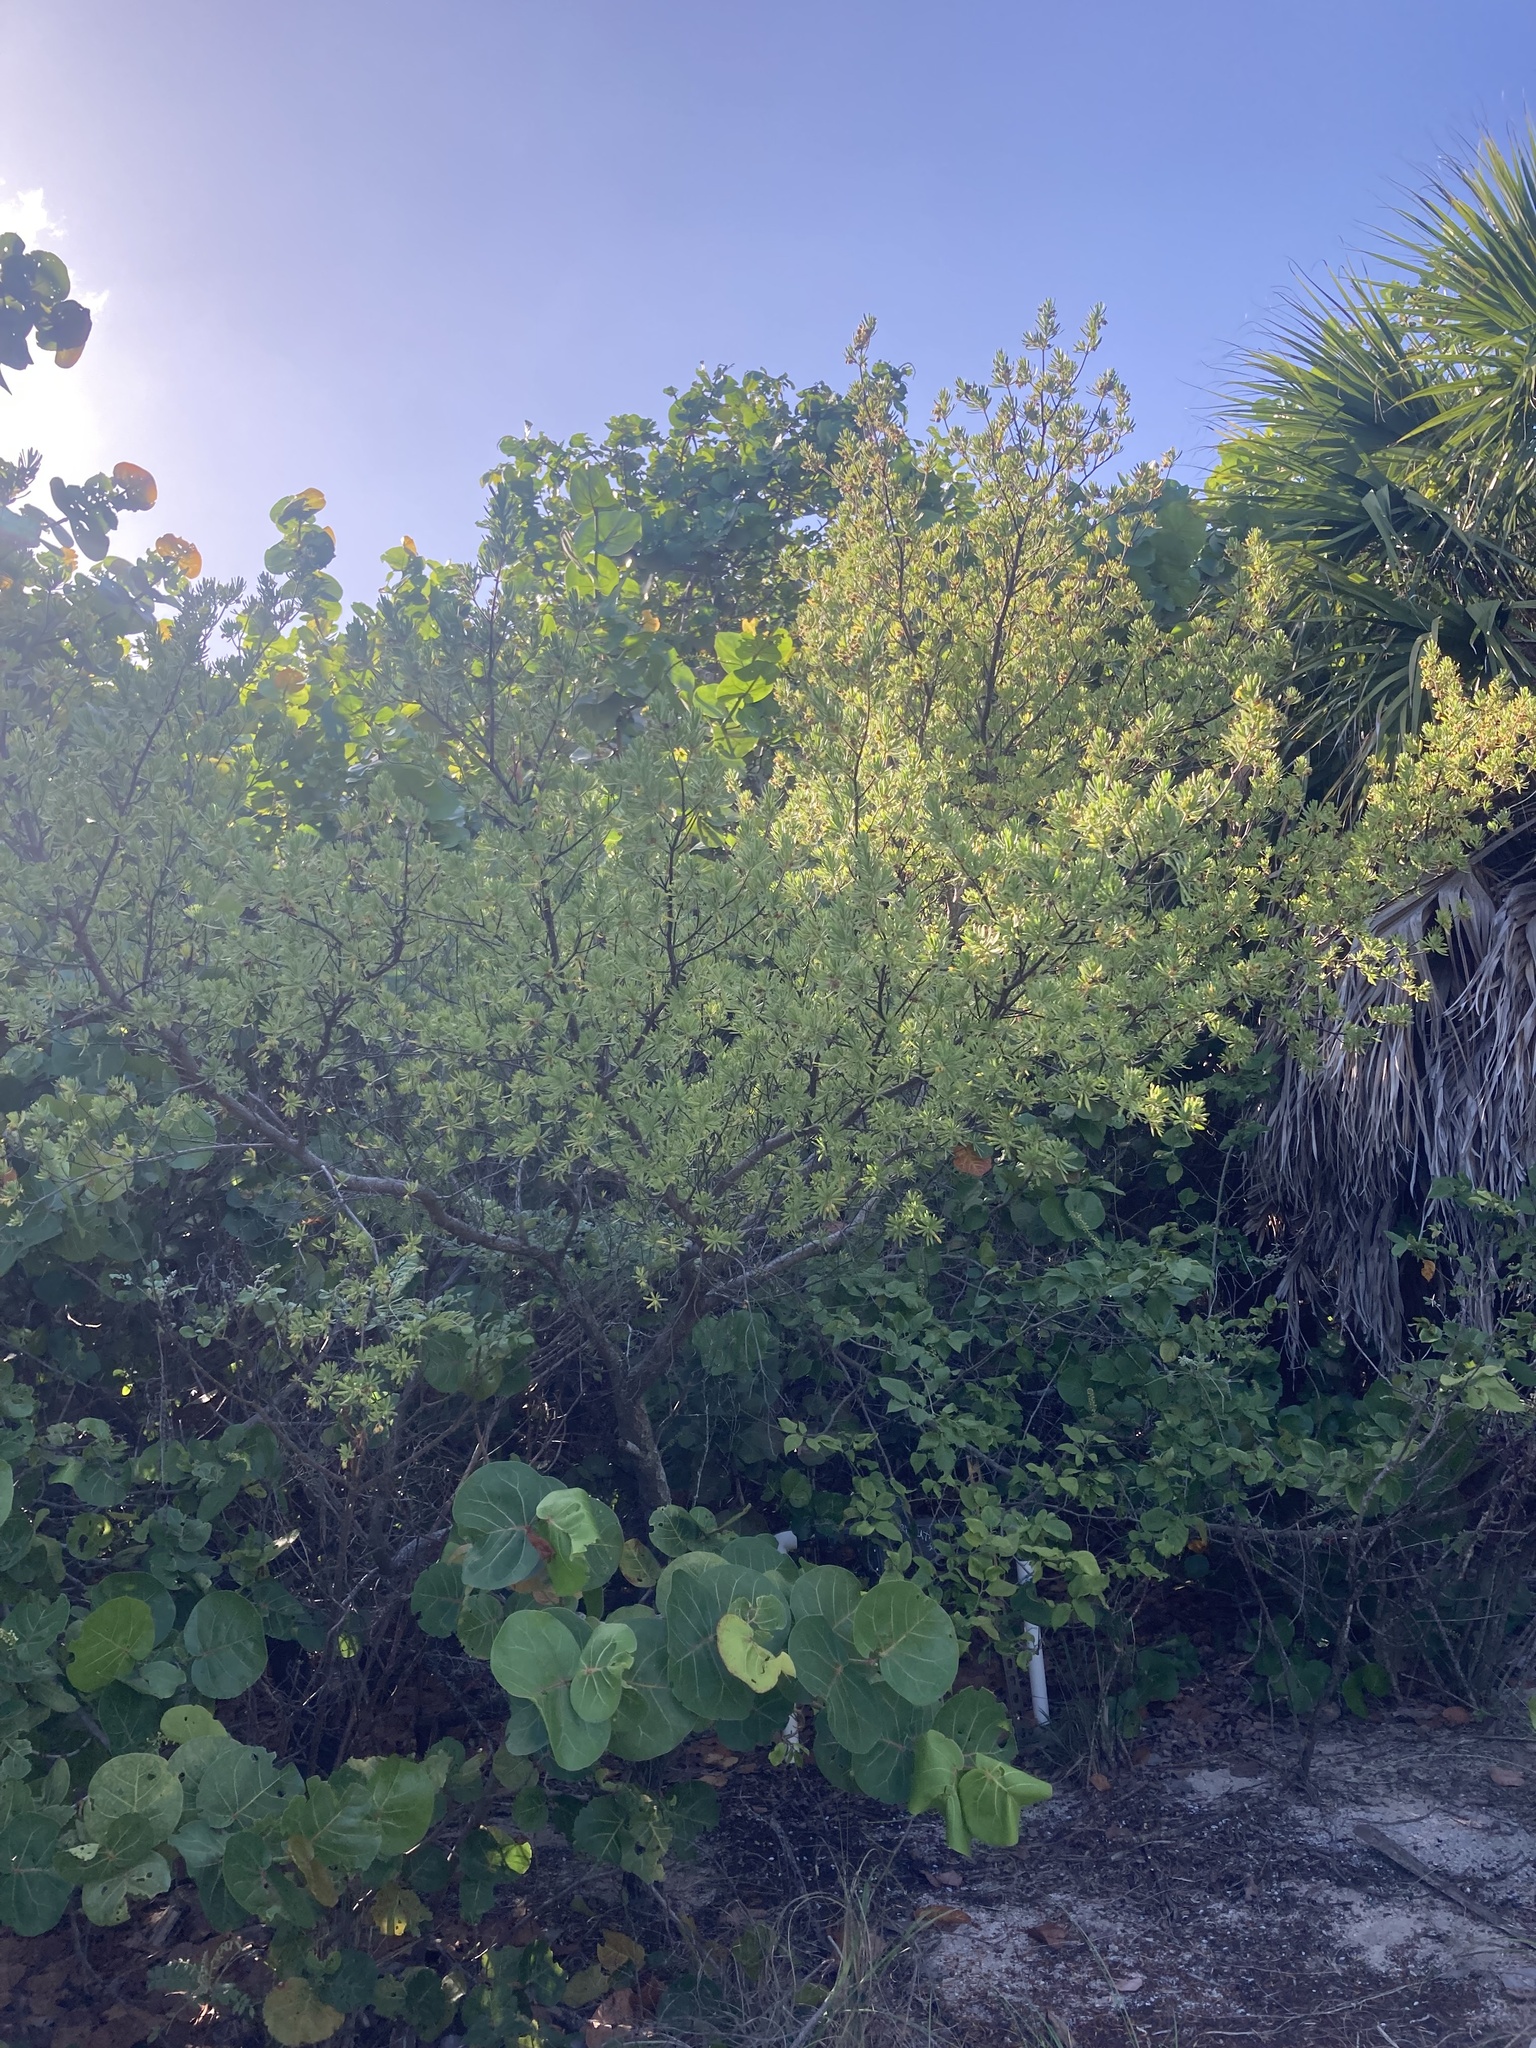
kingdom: Plantae
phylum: Tracheophyta
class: Magnoliopsida
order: Fabales
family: Surianaceae
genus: Suriana
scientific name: Suriana maritima
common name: Bay-cedar
